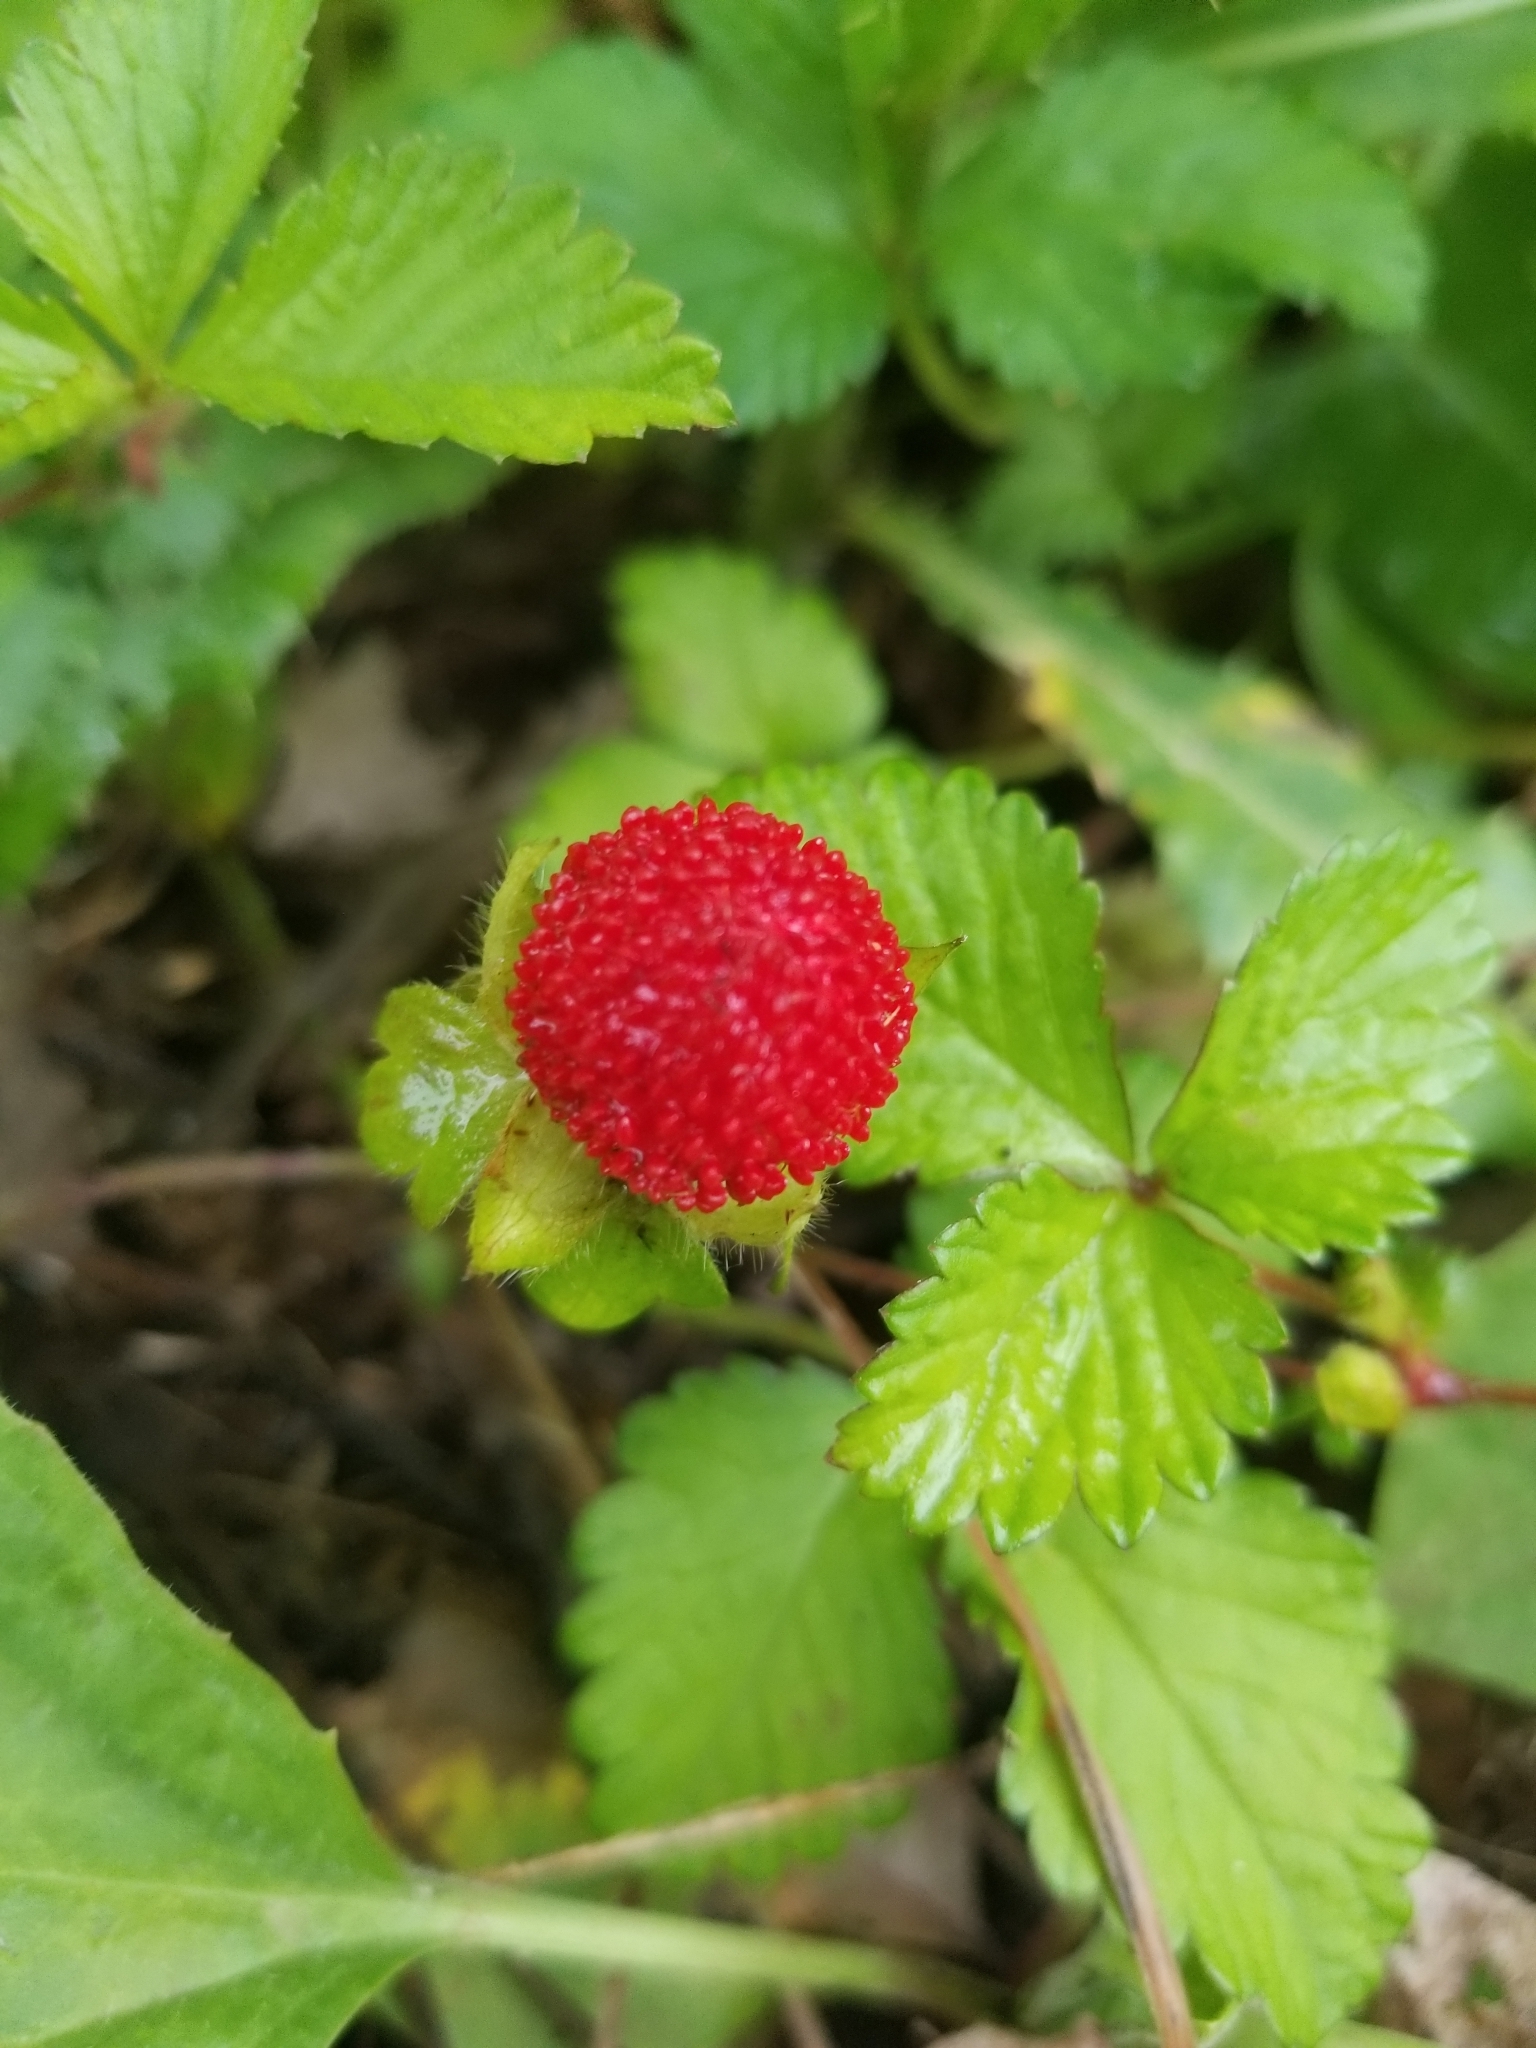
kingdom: Plantae
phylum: Tracheophyta
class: Magnoliopsida
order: Rosales
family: Rosaceae
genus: Potentilla
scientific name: Potentilla indica
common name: Yellow-flowered strawberry
